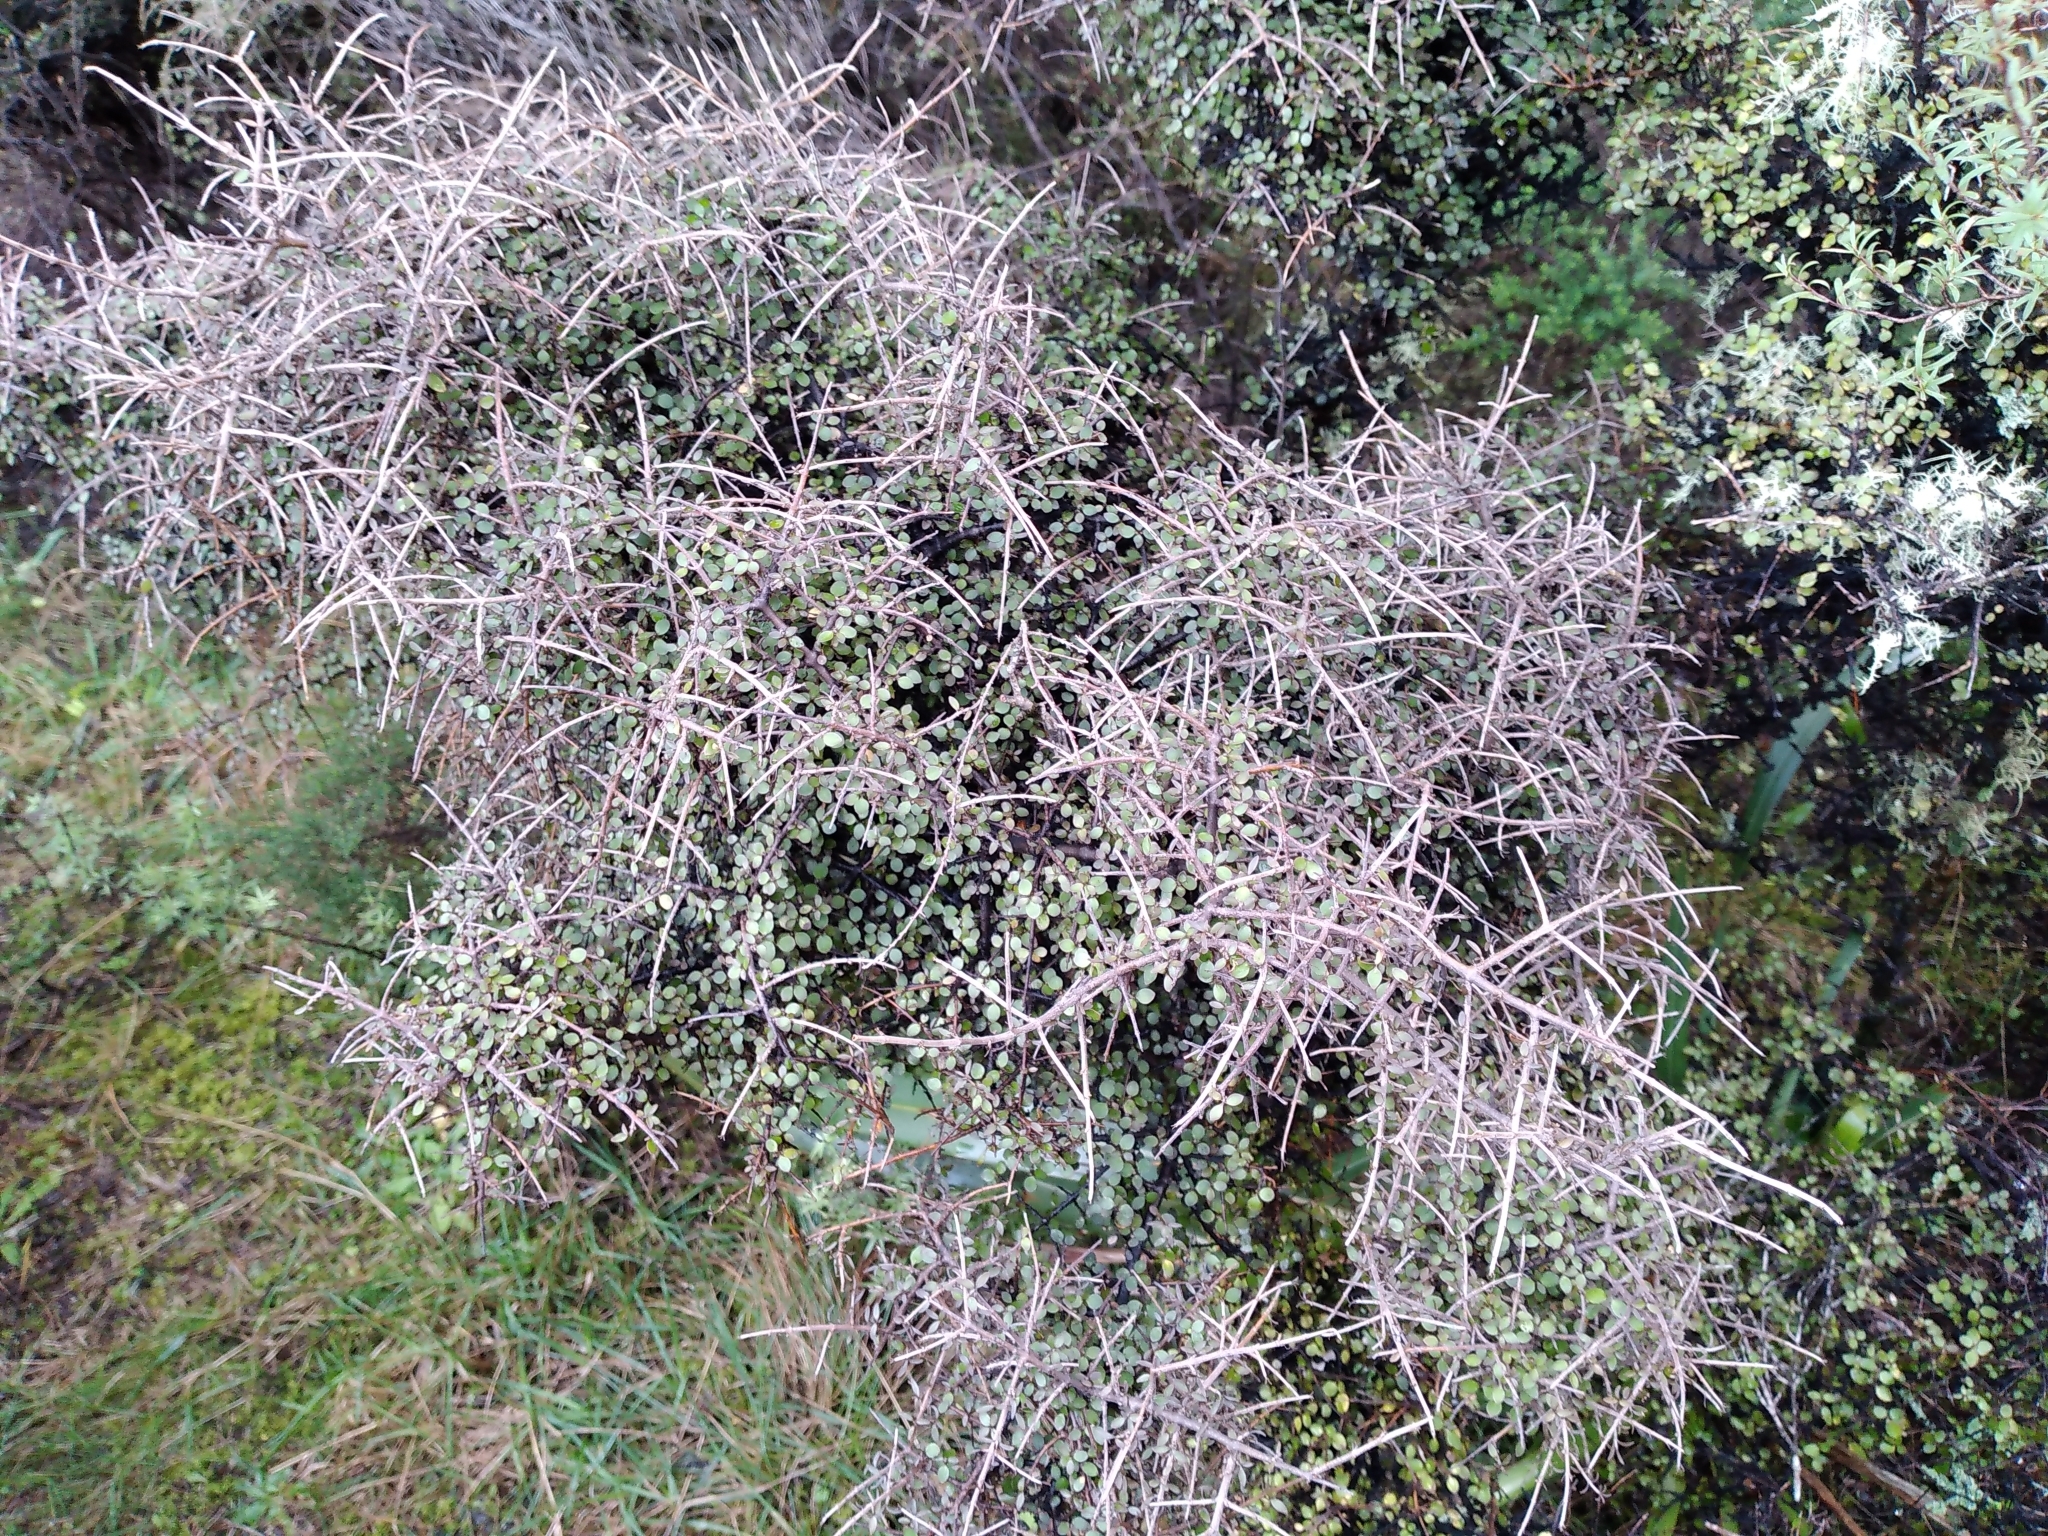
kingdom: Plantae
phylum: Tracheophyta
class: Magnoliopsida
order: Gentianales
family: Rubiaceae
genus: Coprosma
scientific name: Coprosma rhamnoides
